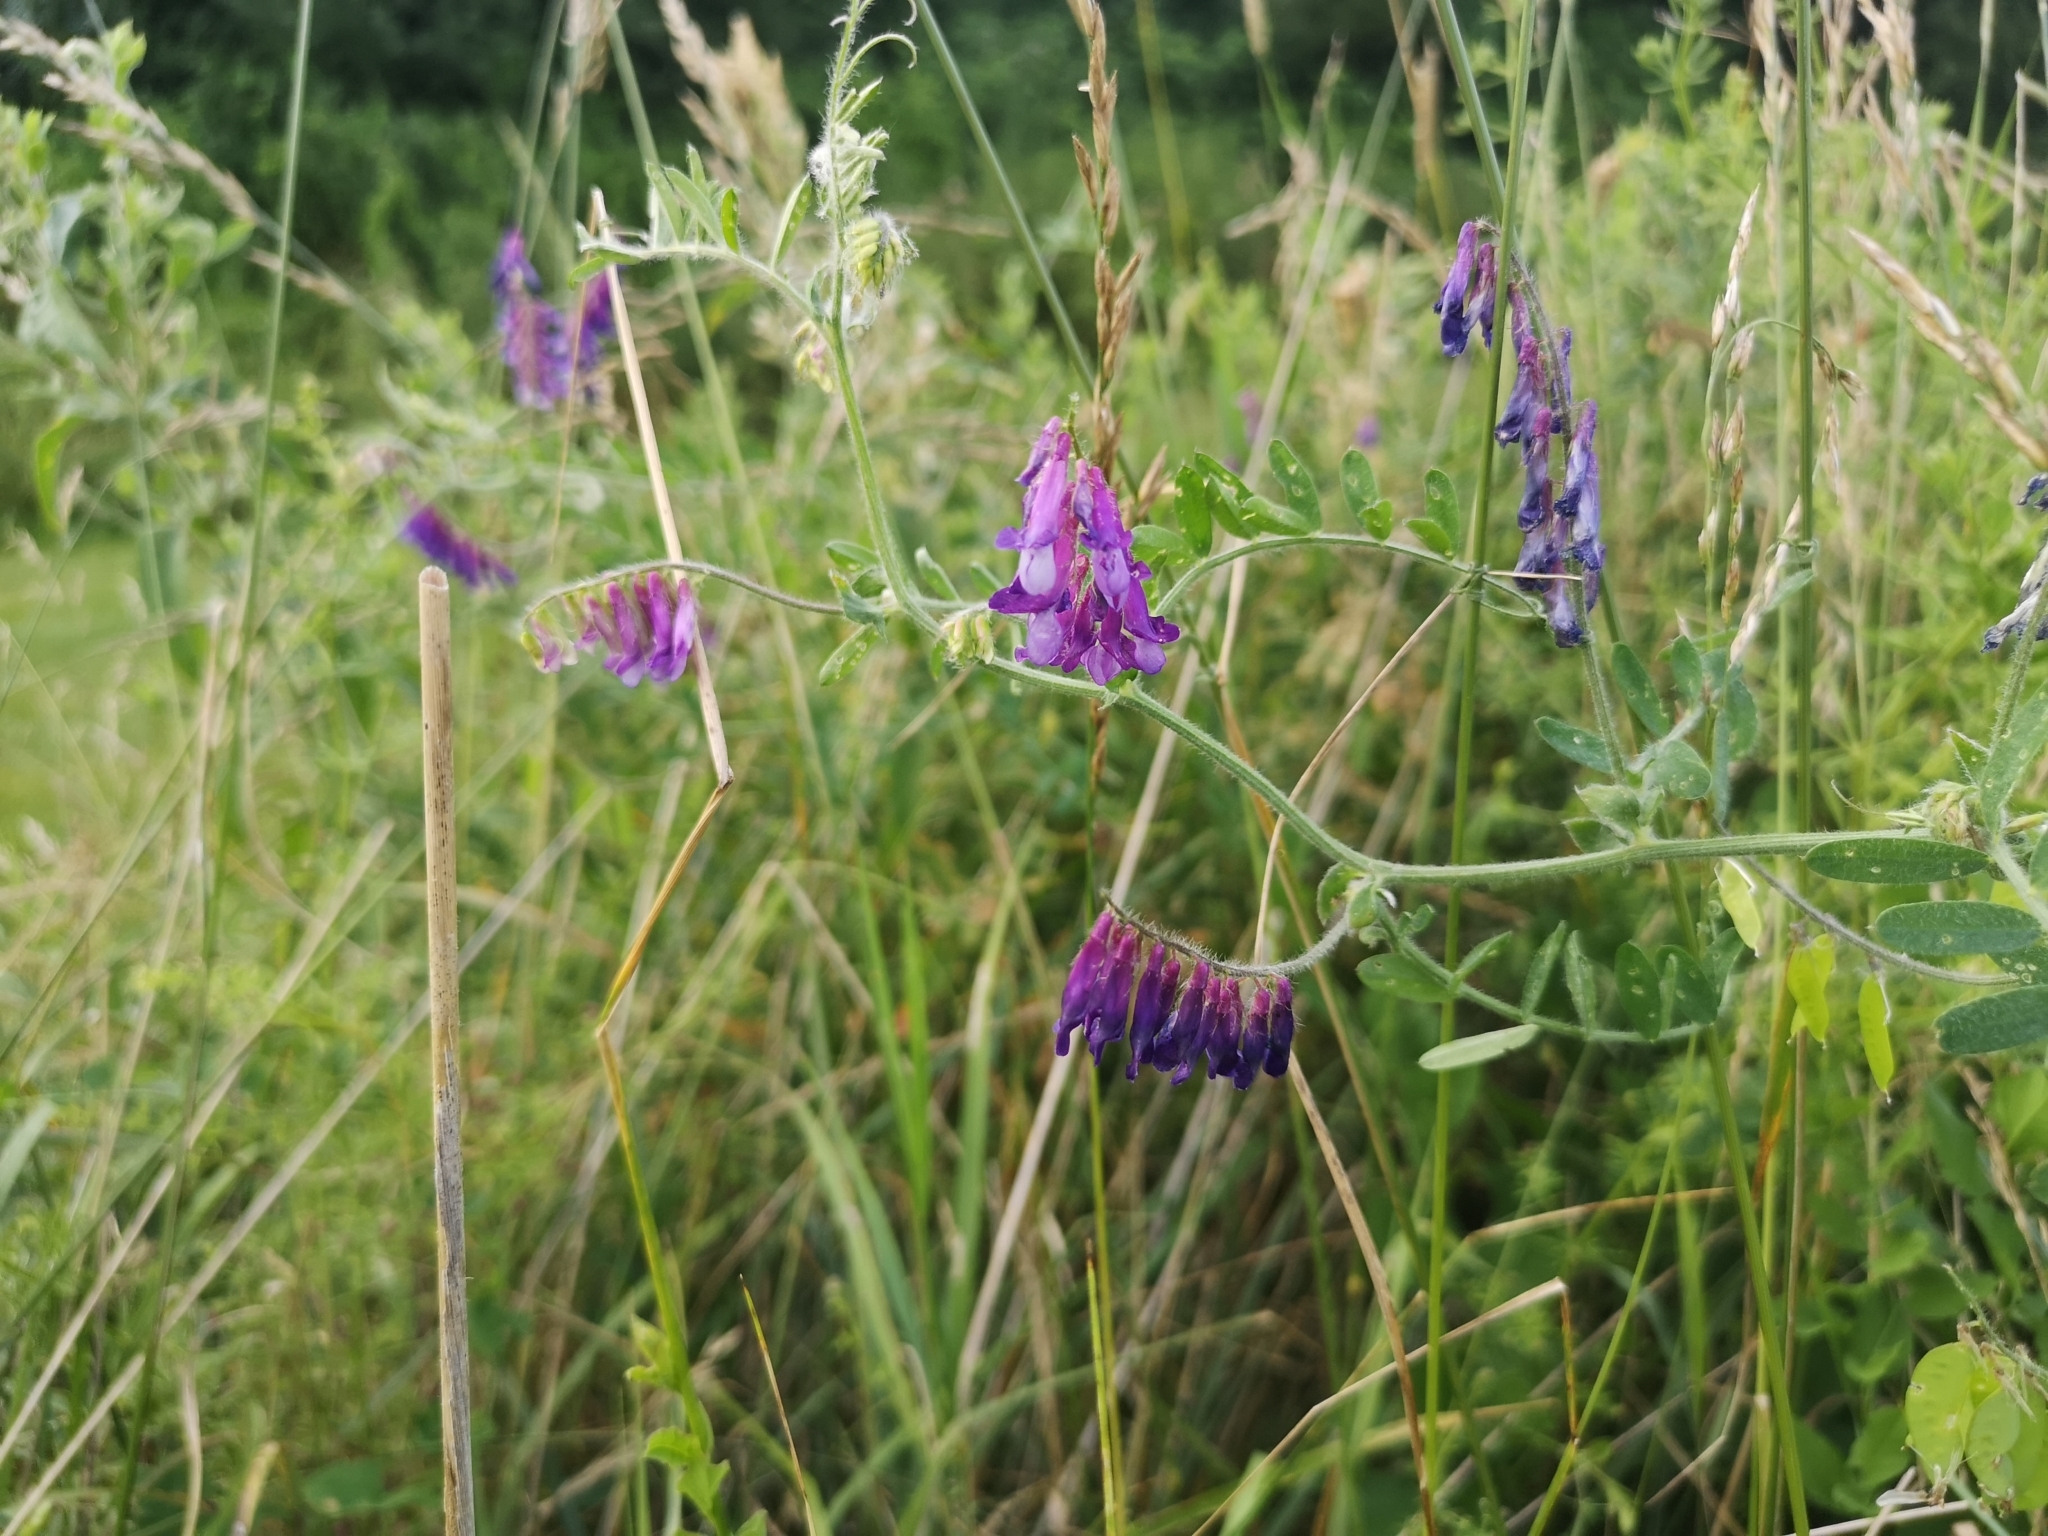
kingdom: Plantae
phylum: Tracheophyta
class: Magnoliopsida
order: Fabales
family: Fabaceae
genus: Vicia
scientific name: Vicia villosa
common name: Fodder vetch
